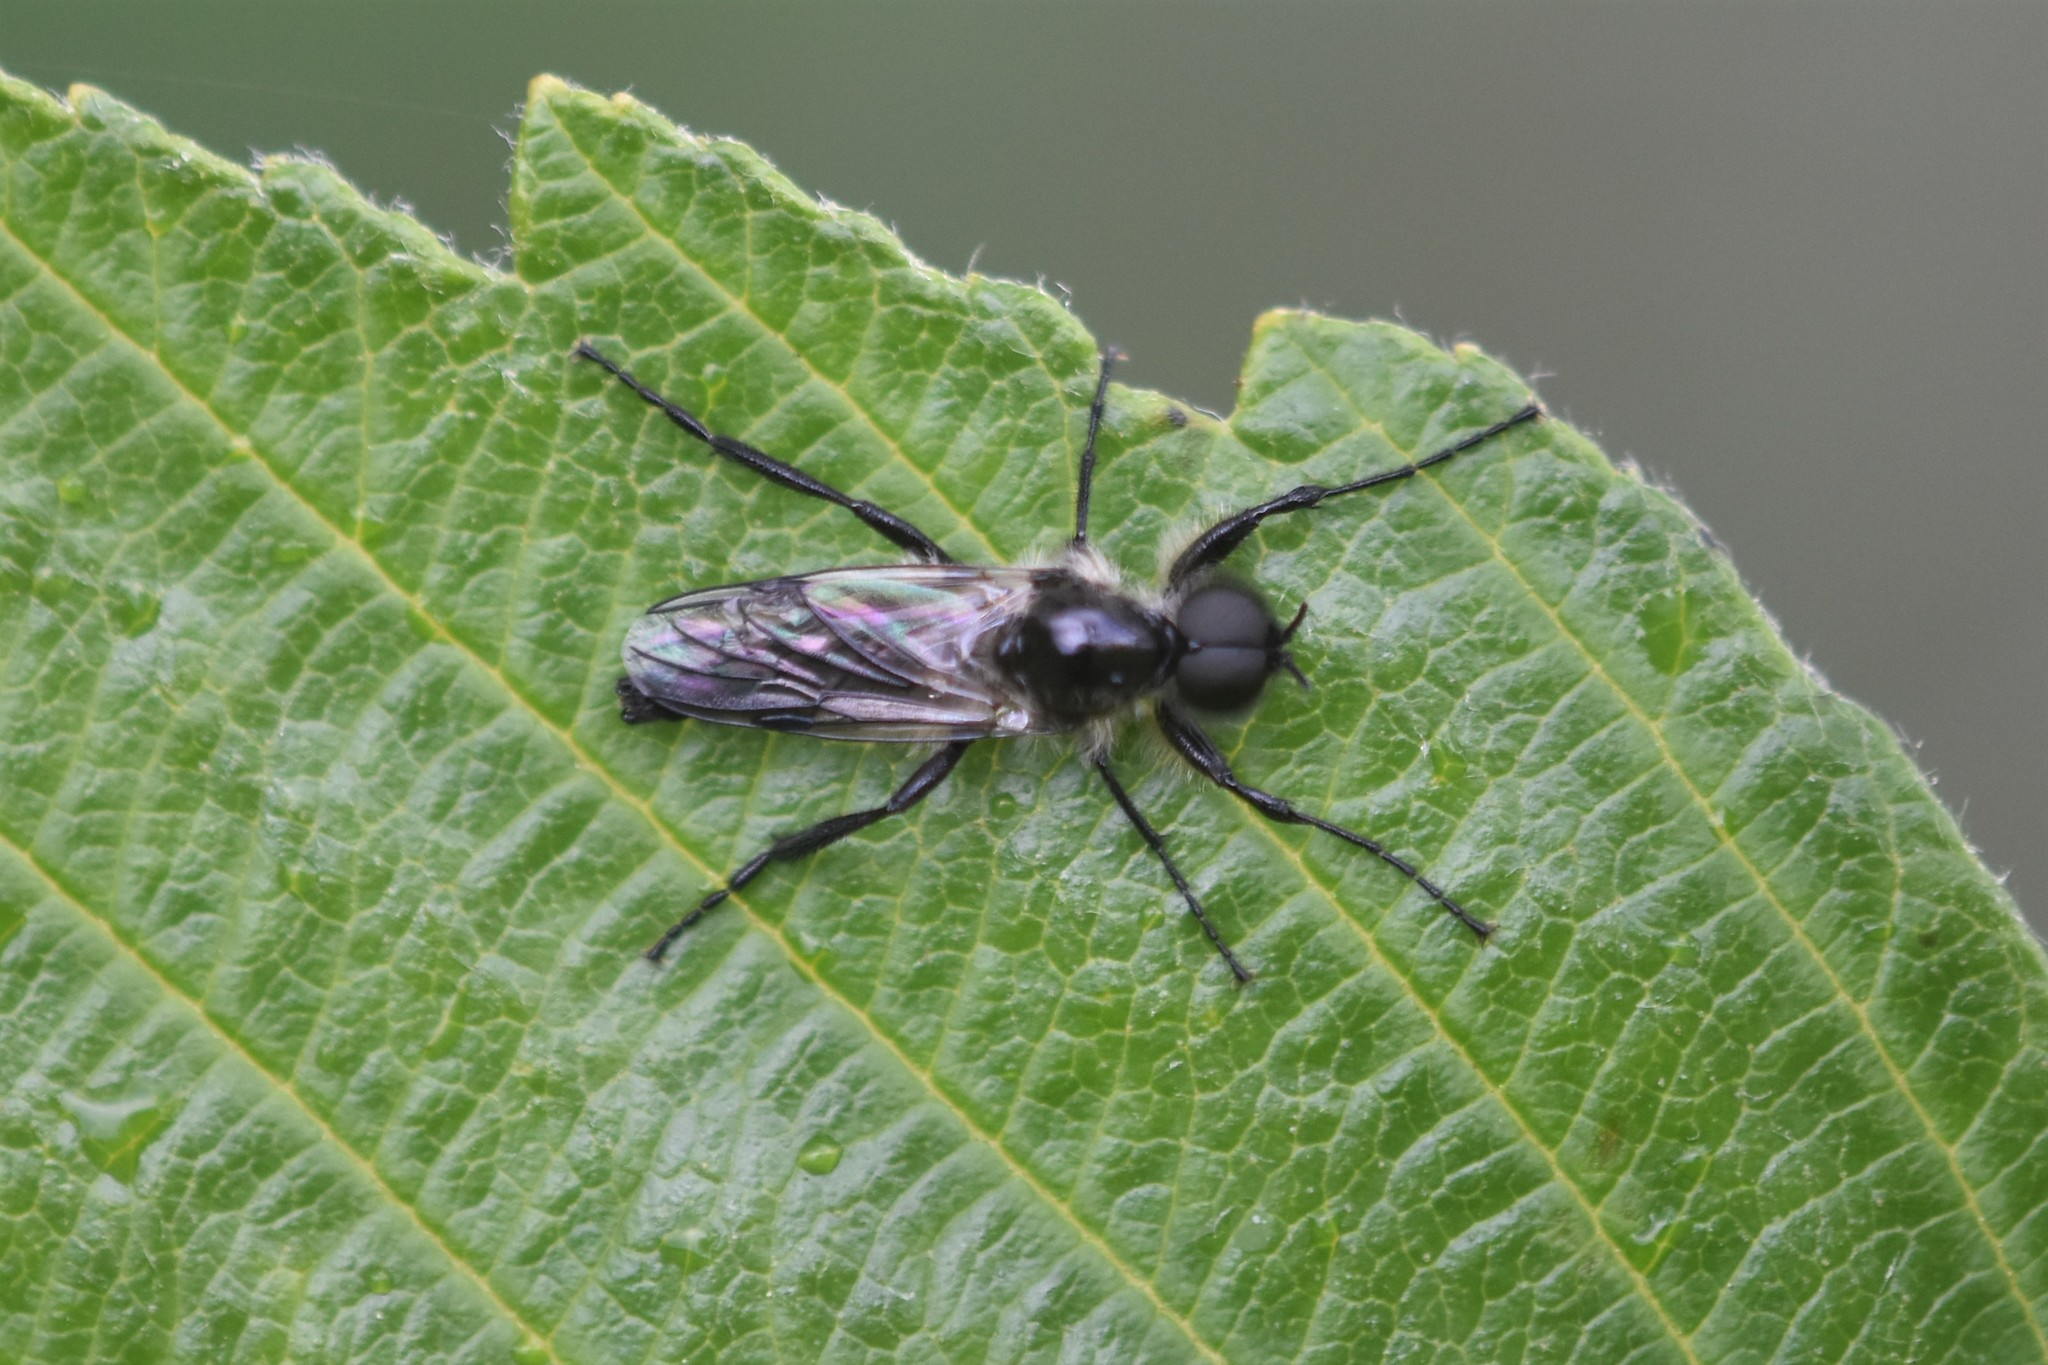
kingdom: Animalia
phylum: Arthropoda
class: Insecta
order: Diptera
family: Bibionidae
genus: Bibio
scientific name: Bibio albipennis
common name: White-winged march fly
